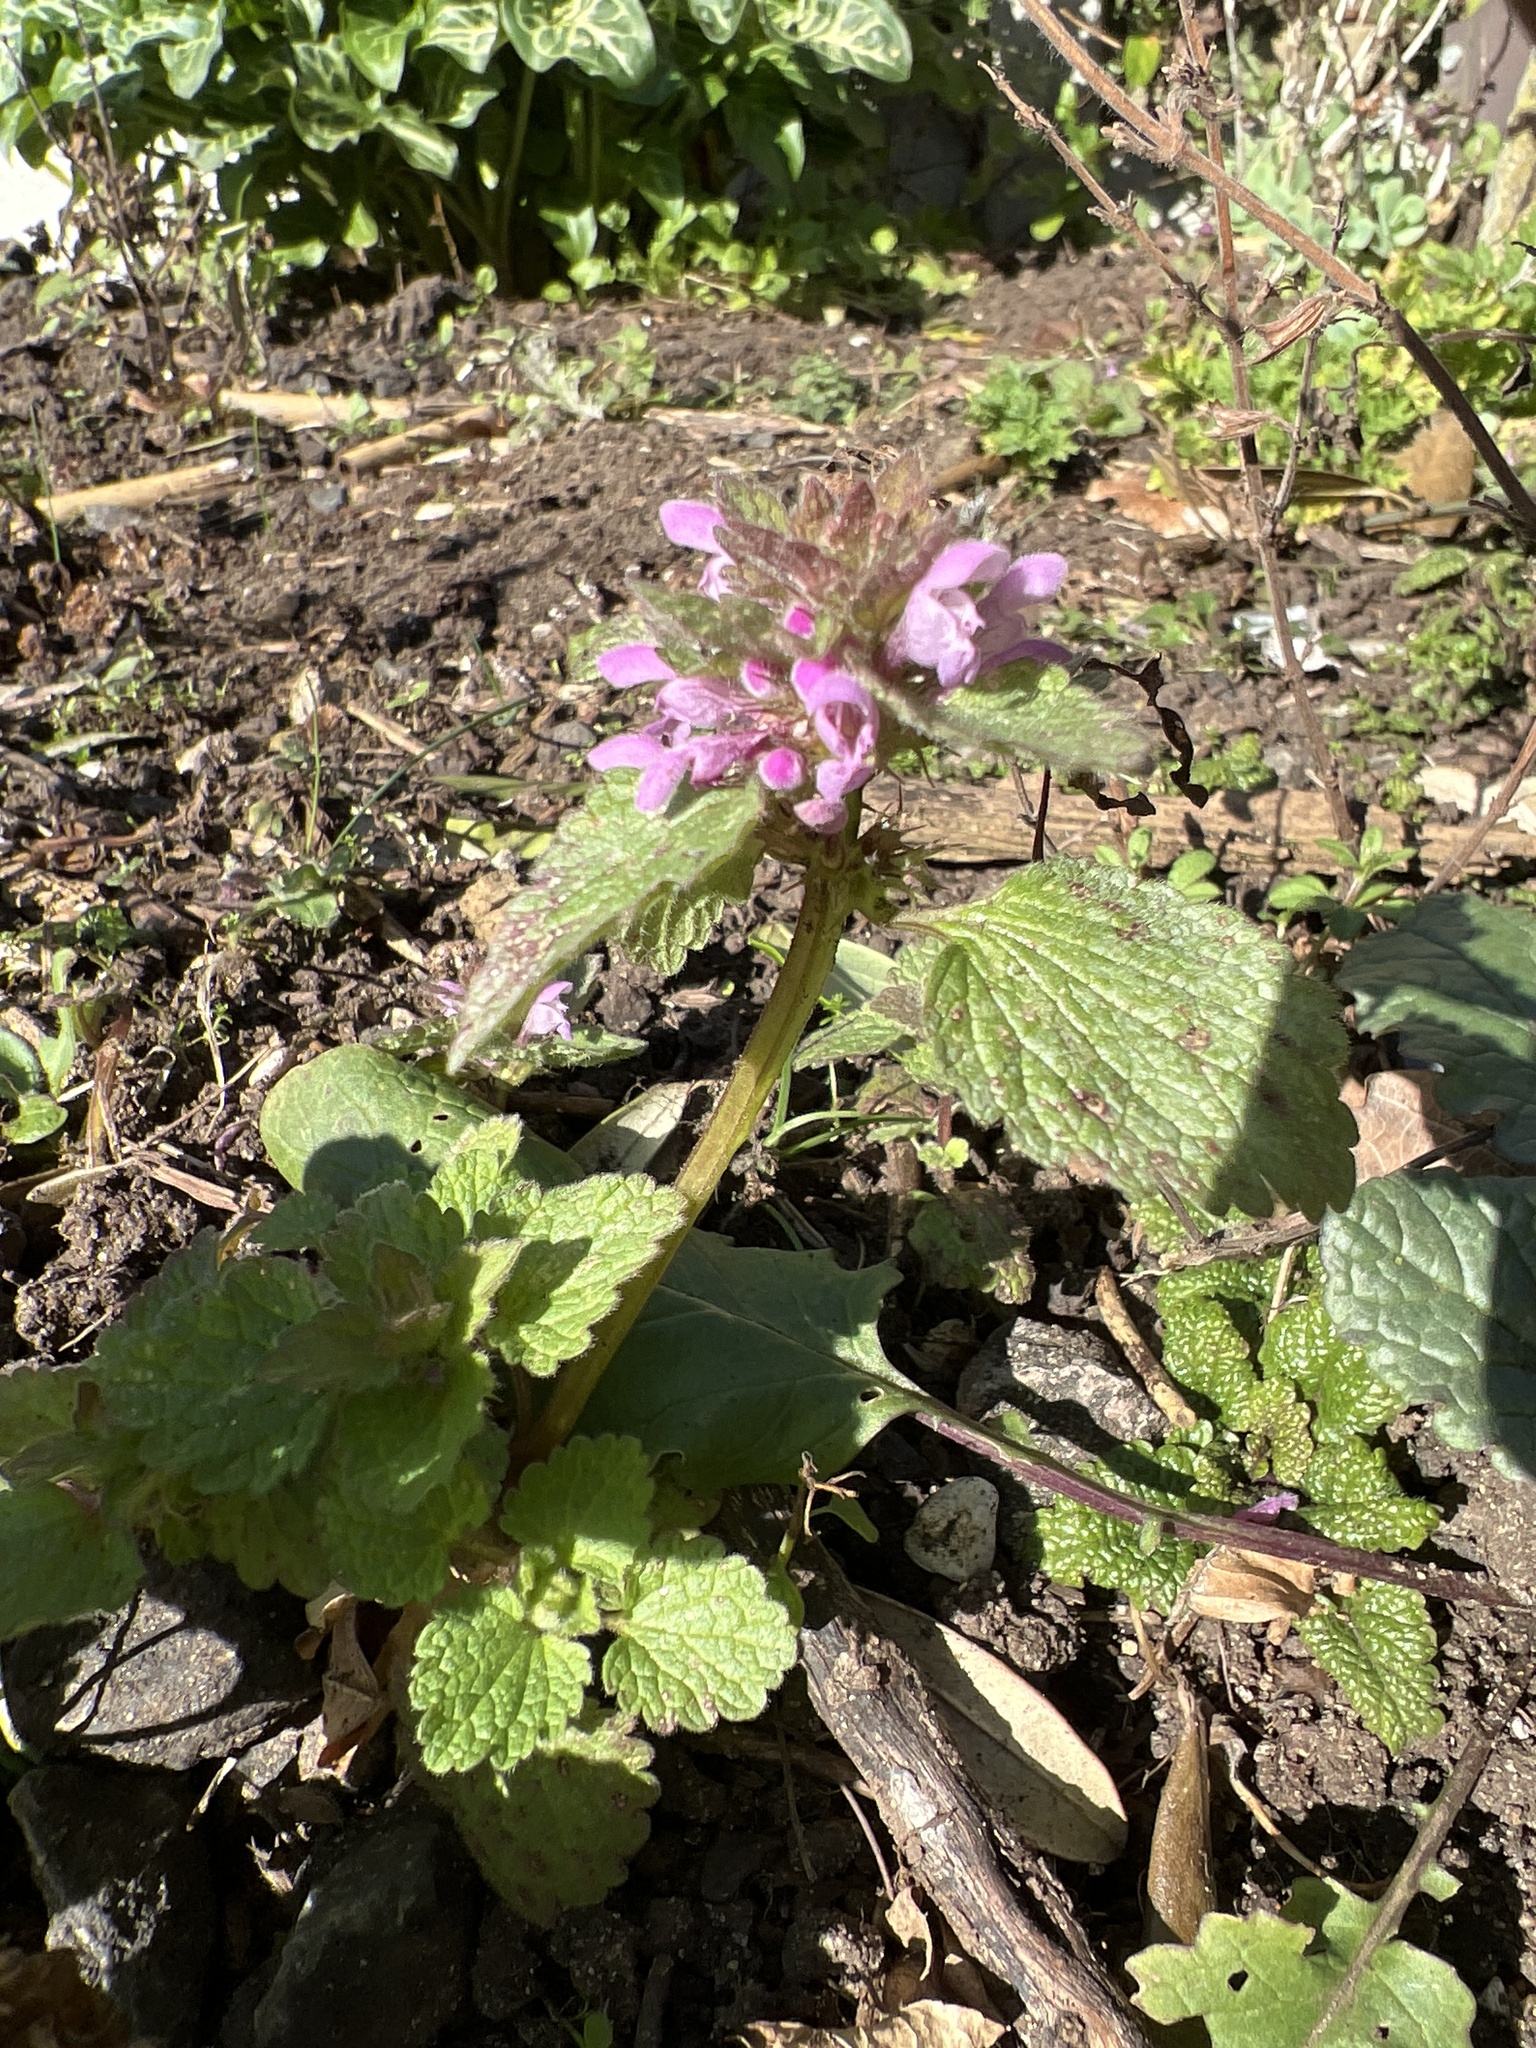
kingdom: Plantae
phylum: Tracheophyta
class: Magnoliopsida
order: Lamiales
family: Lamiaceae
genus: Lamium
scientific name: Lamium purpureum
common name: Red dead-nettle
